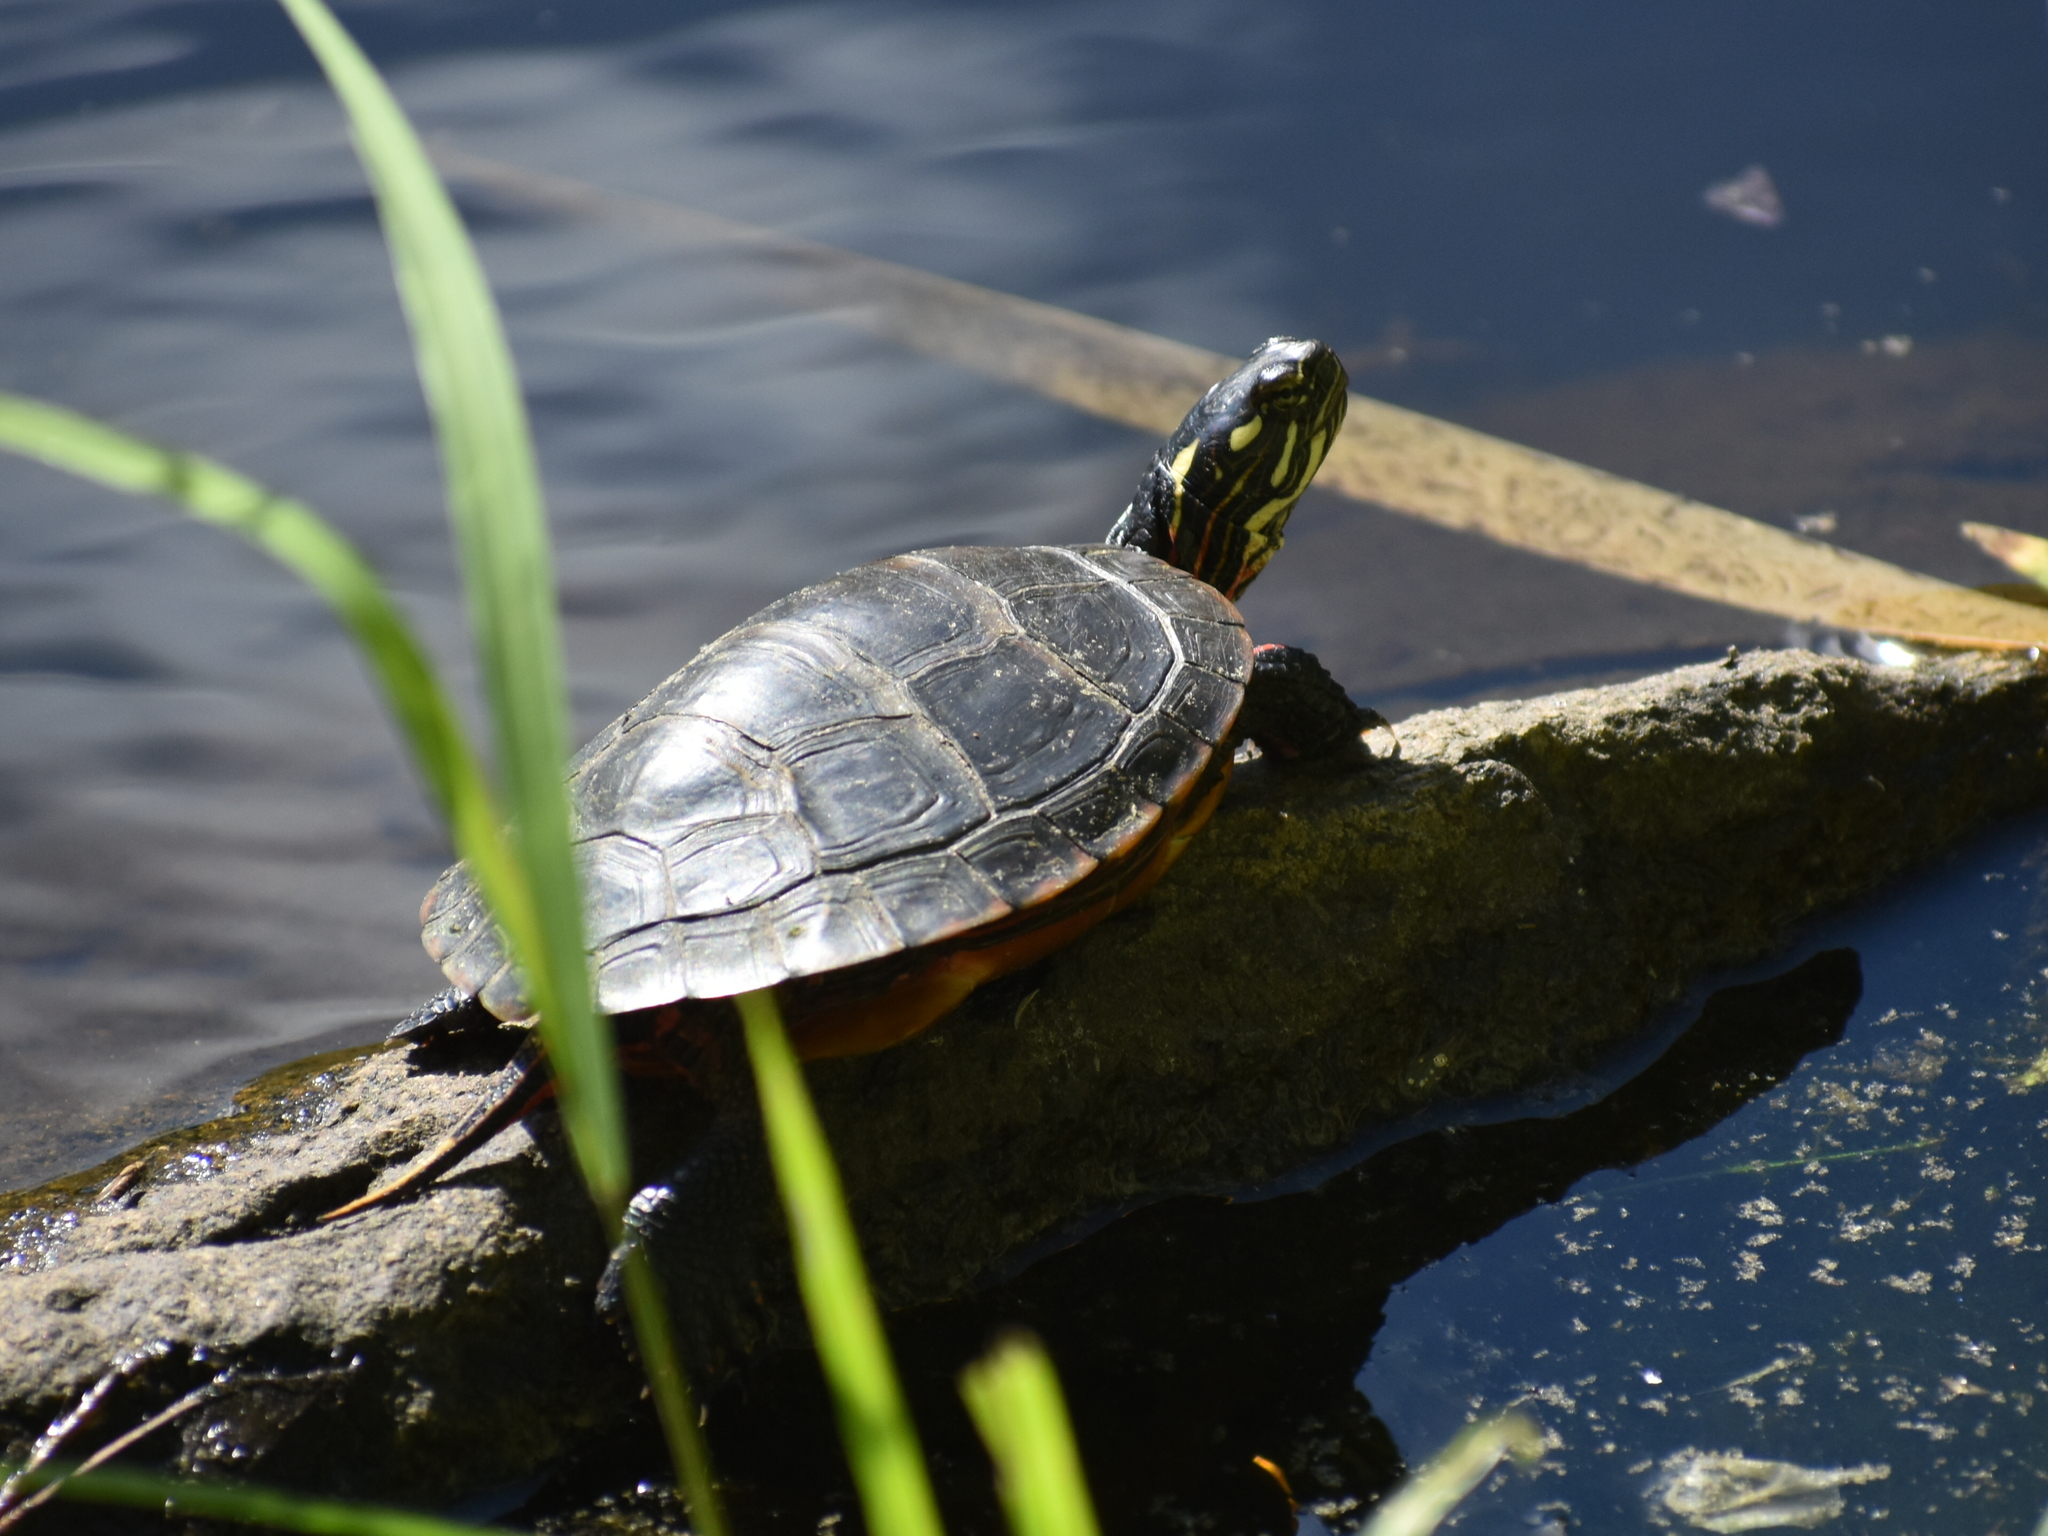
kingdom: Animalia
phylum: Chordata
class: Testudines
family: Emydidae
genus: Chrysemys
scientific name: Chrysemys picta
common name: Painted turtle
